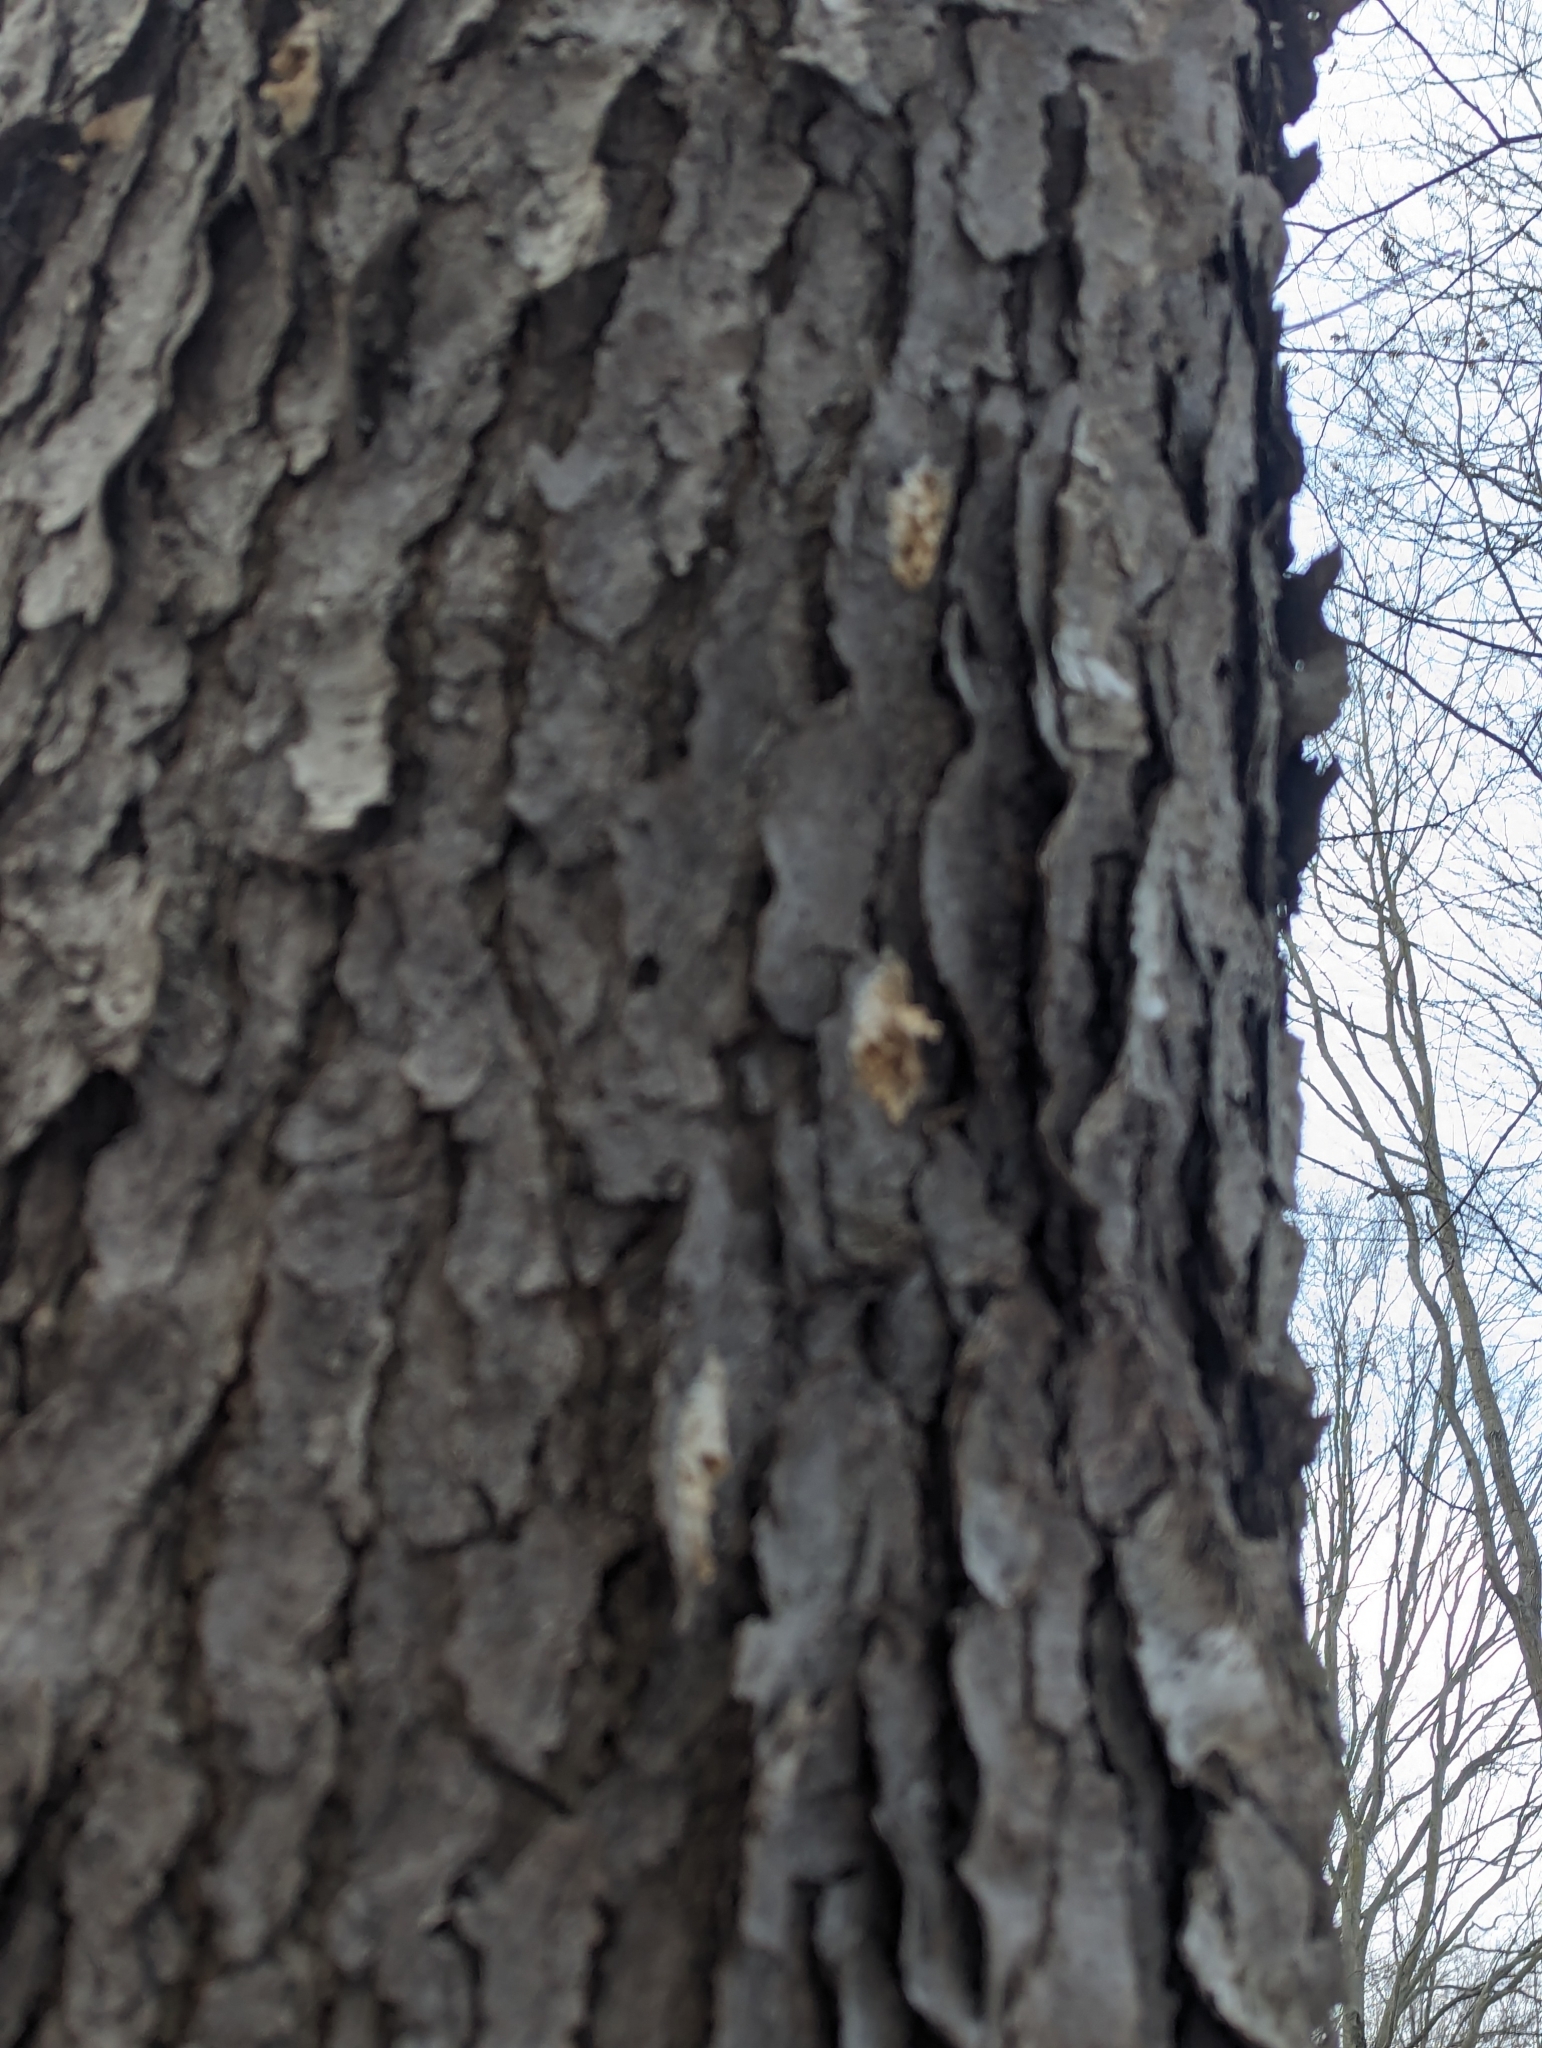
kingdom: Plantae
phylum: Tracheophyta
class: Magnoliopsida
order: Rosales
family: Rosaceae
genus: Prunus
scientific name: Prunus serotina
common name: Black cherry
